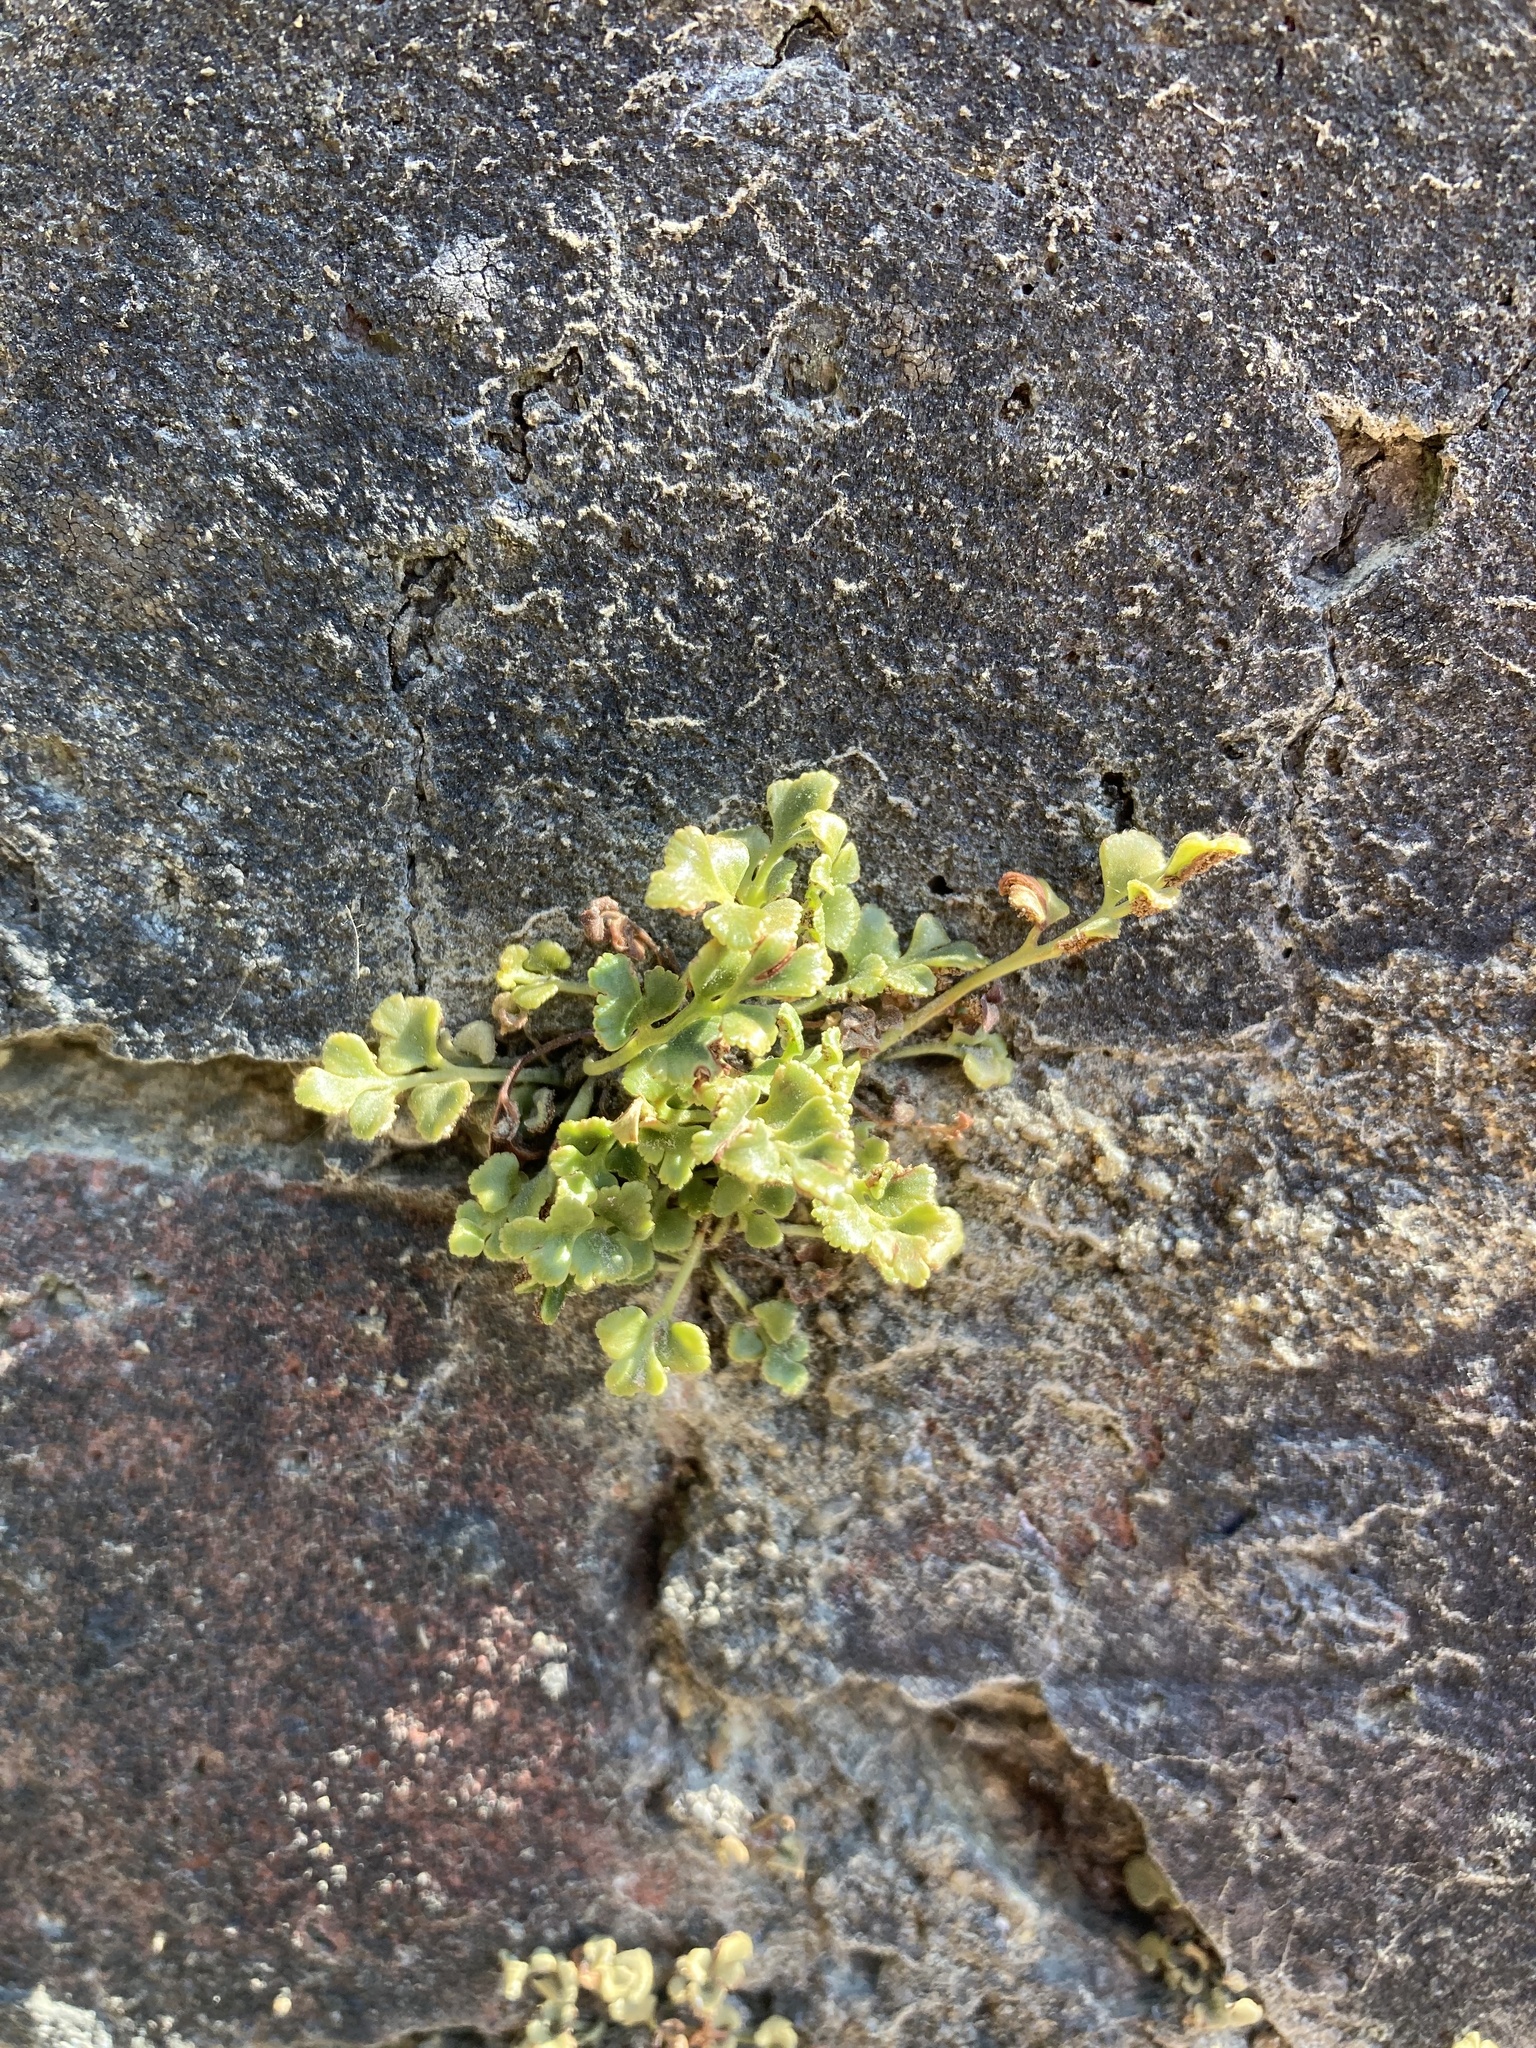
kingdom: Plantae
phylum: Tracheophyta
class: Polypodiopsida
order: Polypodiales
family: Aspleniaceae
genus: Asplenium
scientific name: Asplenium ruta-muraria
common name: Wall-rue
